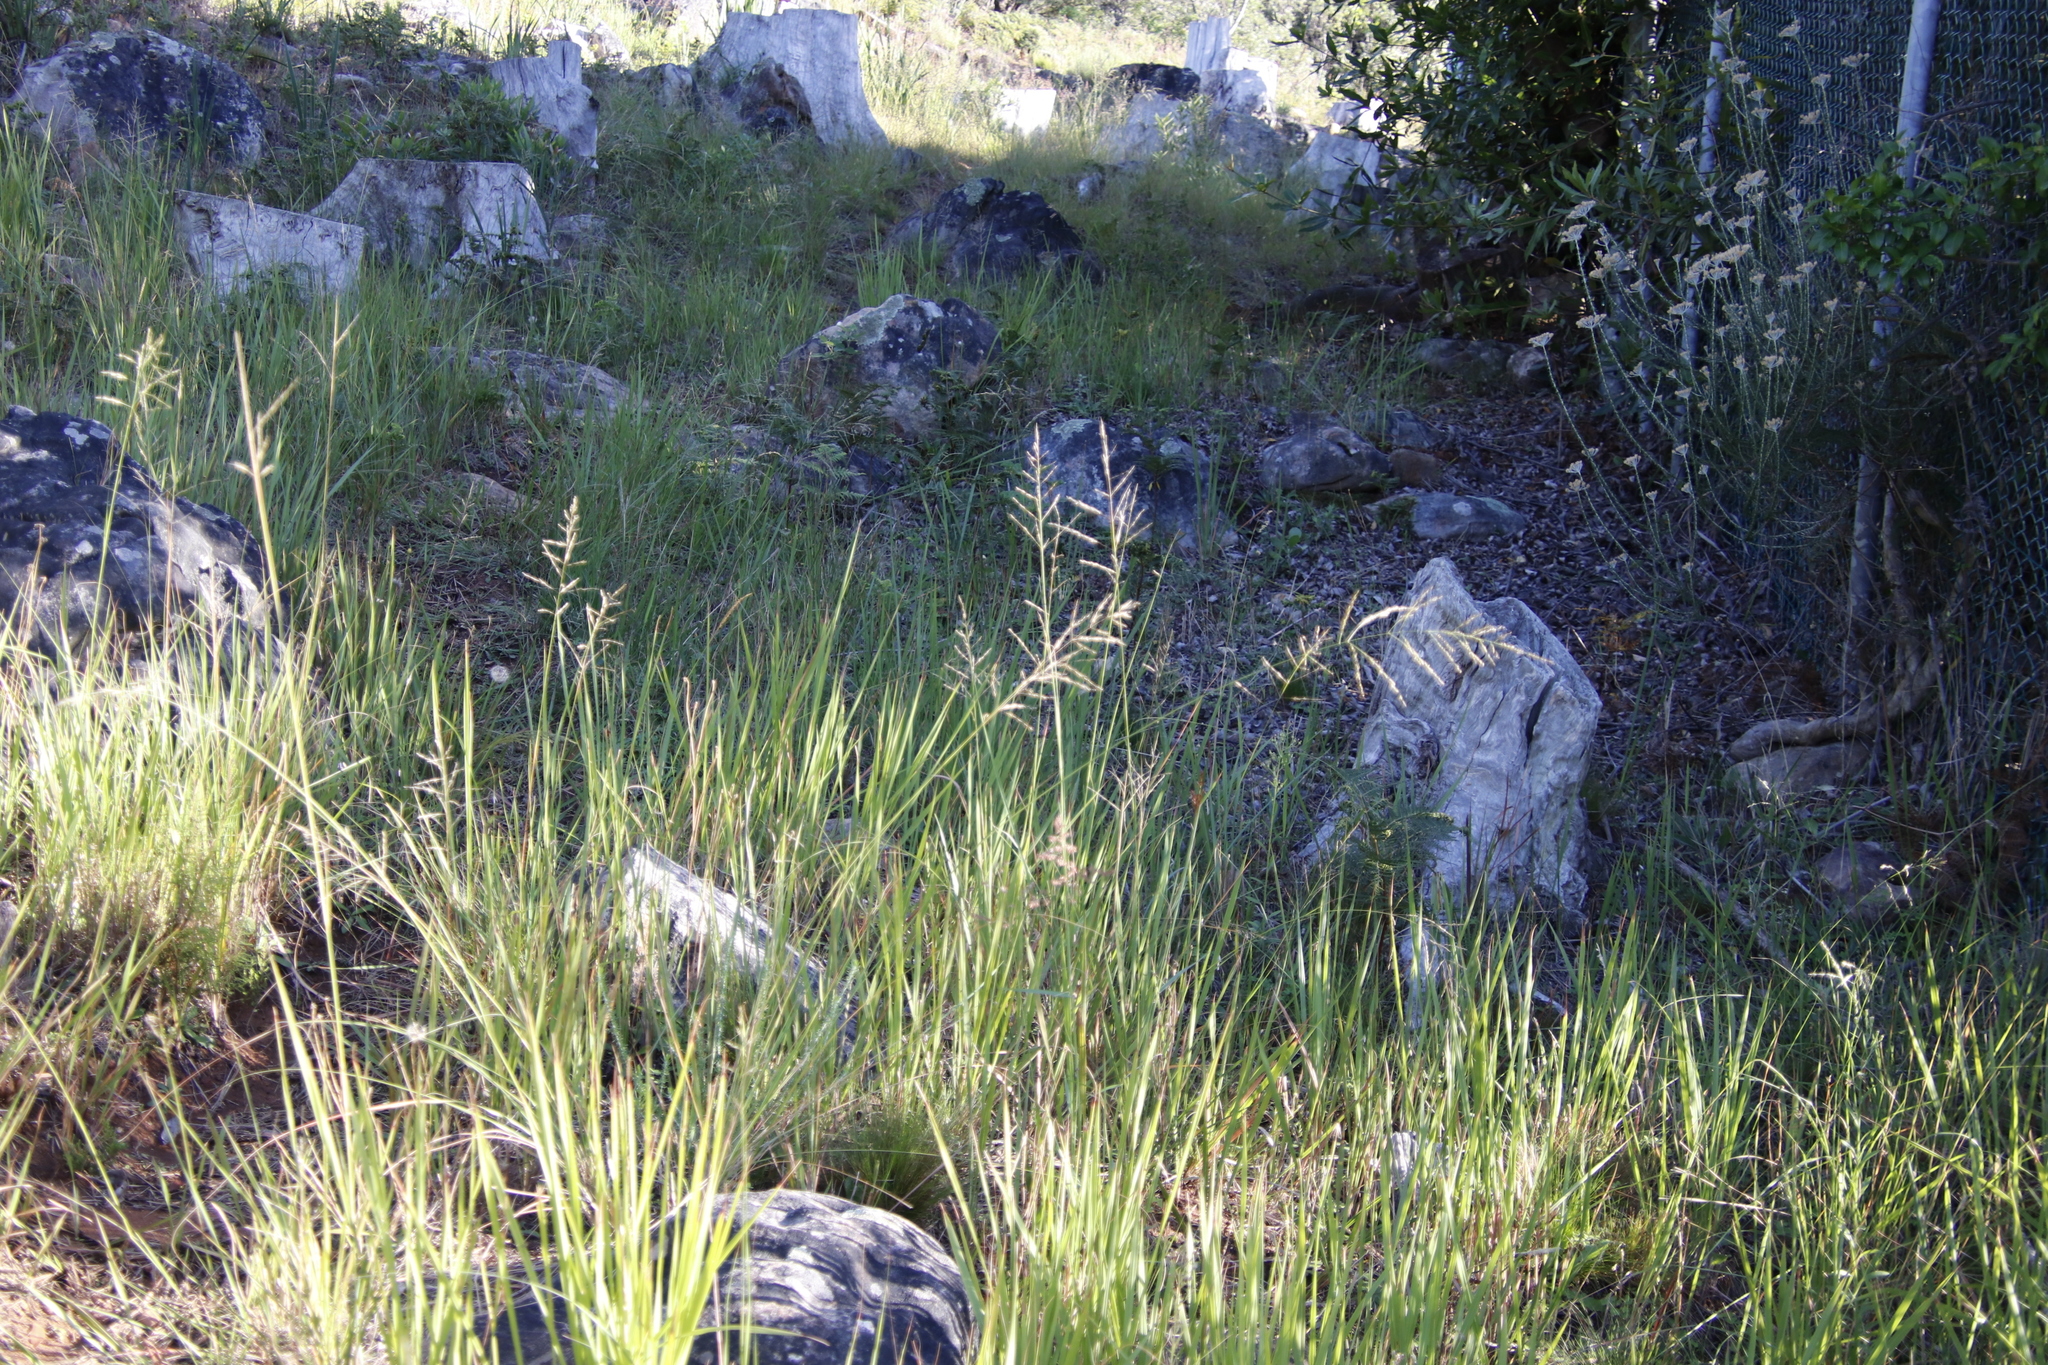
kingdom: Plantae
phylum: Tracheophyta
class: Liliopsida
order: Poales
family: Poaceae
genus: Eragrostis
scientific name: Eragrostis curvula
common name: African love-grass
